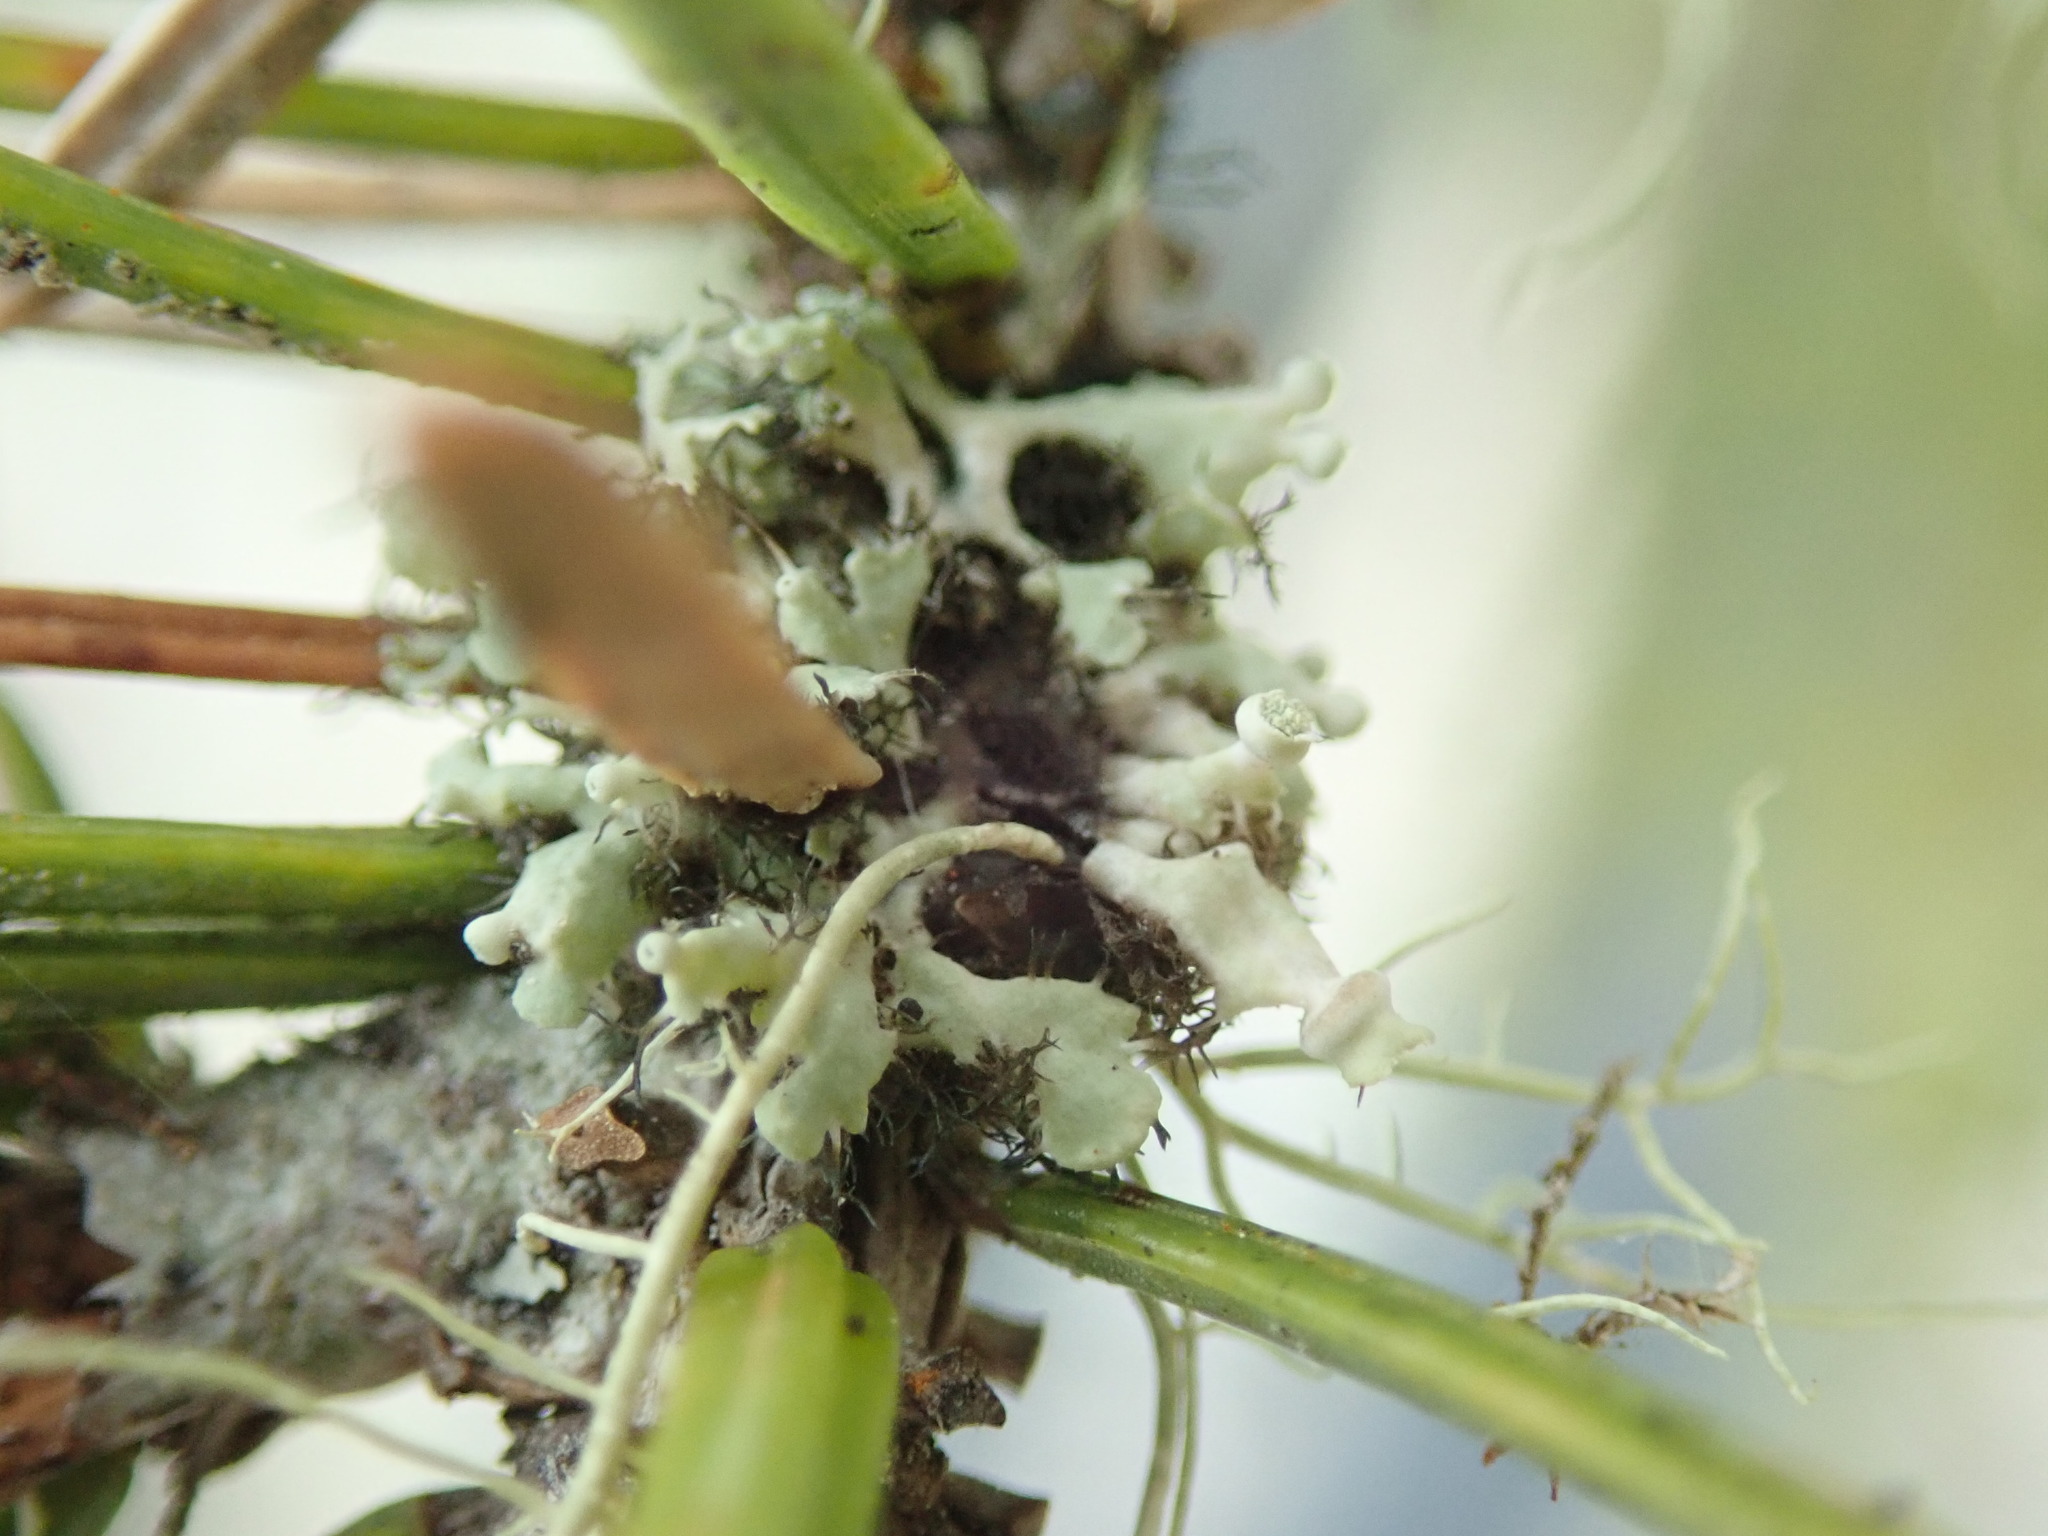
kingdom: Fungi
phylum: Ascomycota
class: Lecanoromycetes
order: Caliciales
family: Physciaceae
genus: Heterodermia
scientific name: Heterodermia sitchensis
